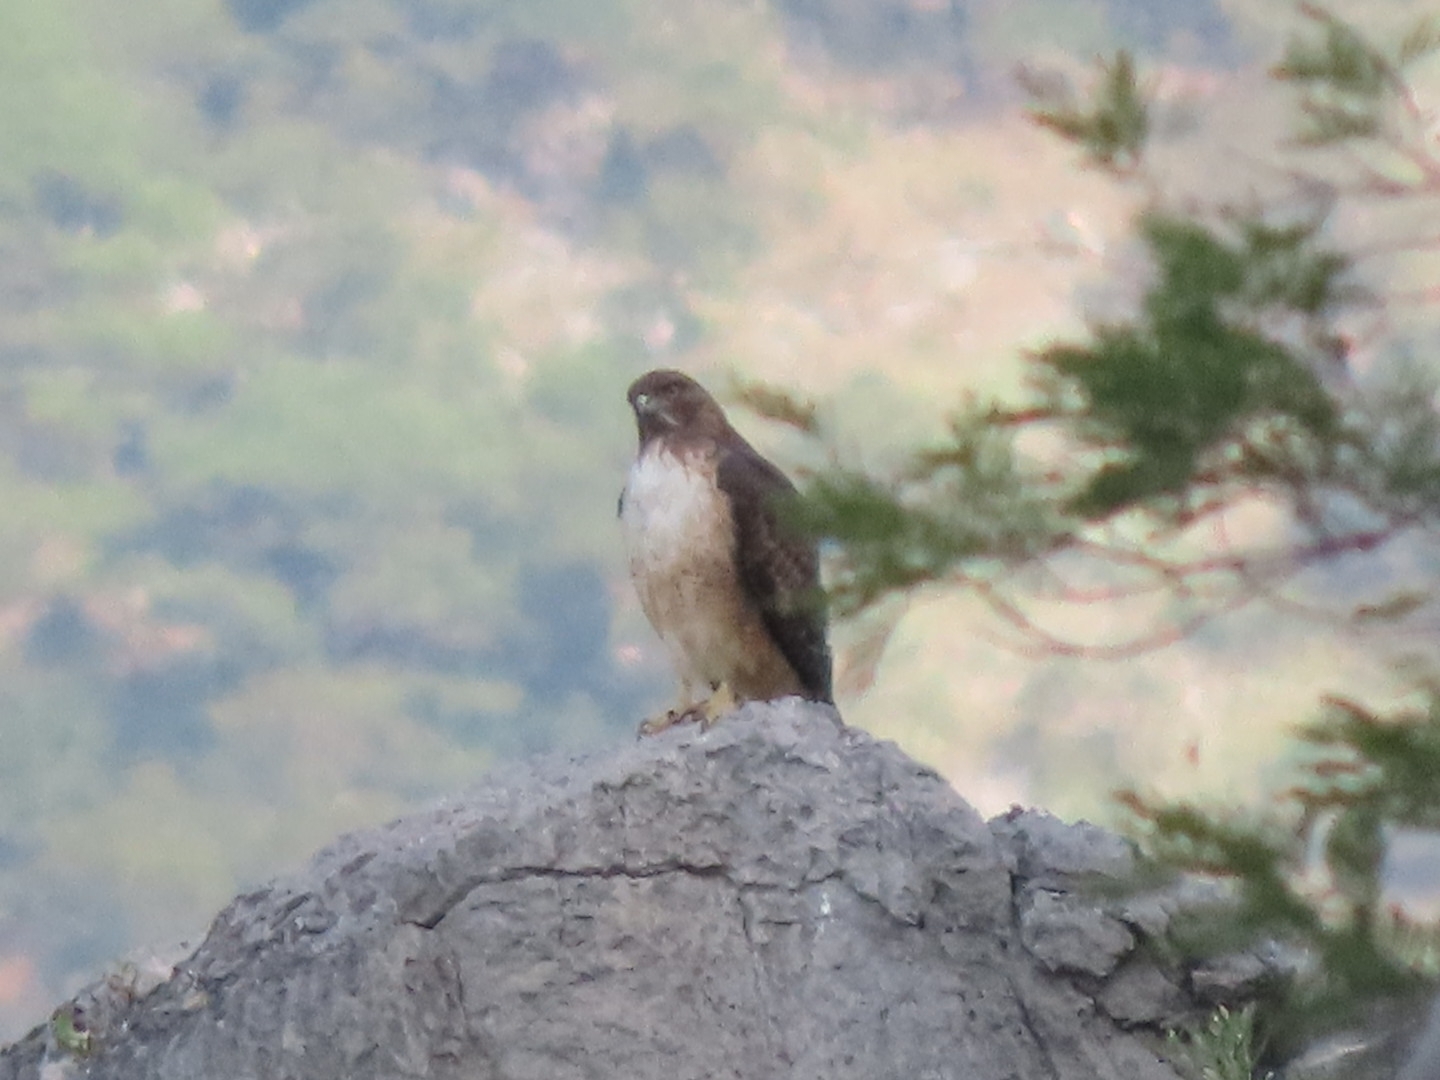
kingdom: Animalia
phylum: Chordata
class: Aves
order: Accipitriformes
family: Accipitridae
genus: Buteo
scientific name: Buteo jamaicensis
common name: Red-tailed hawk
